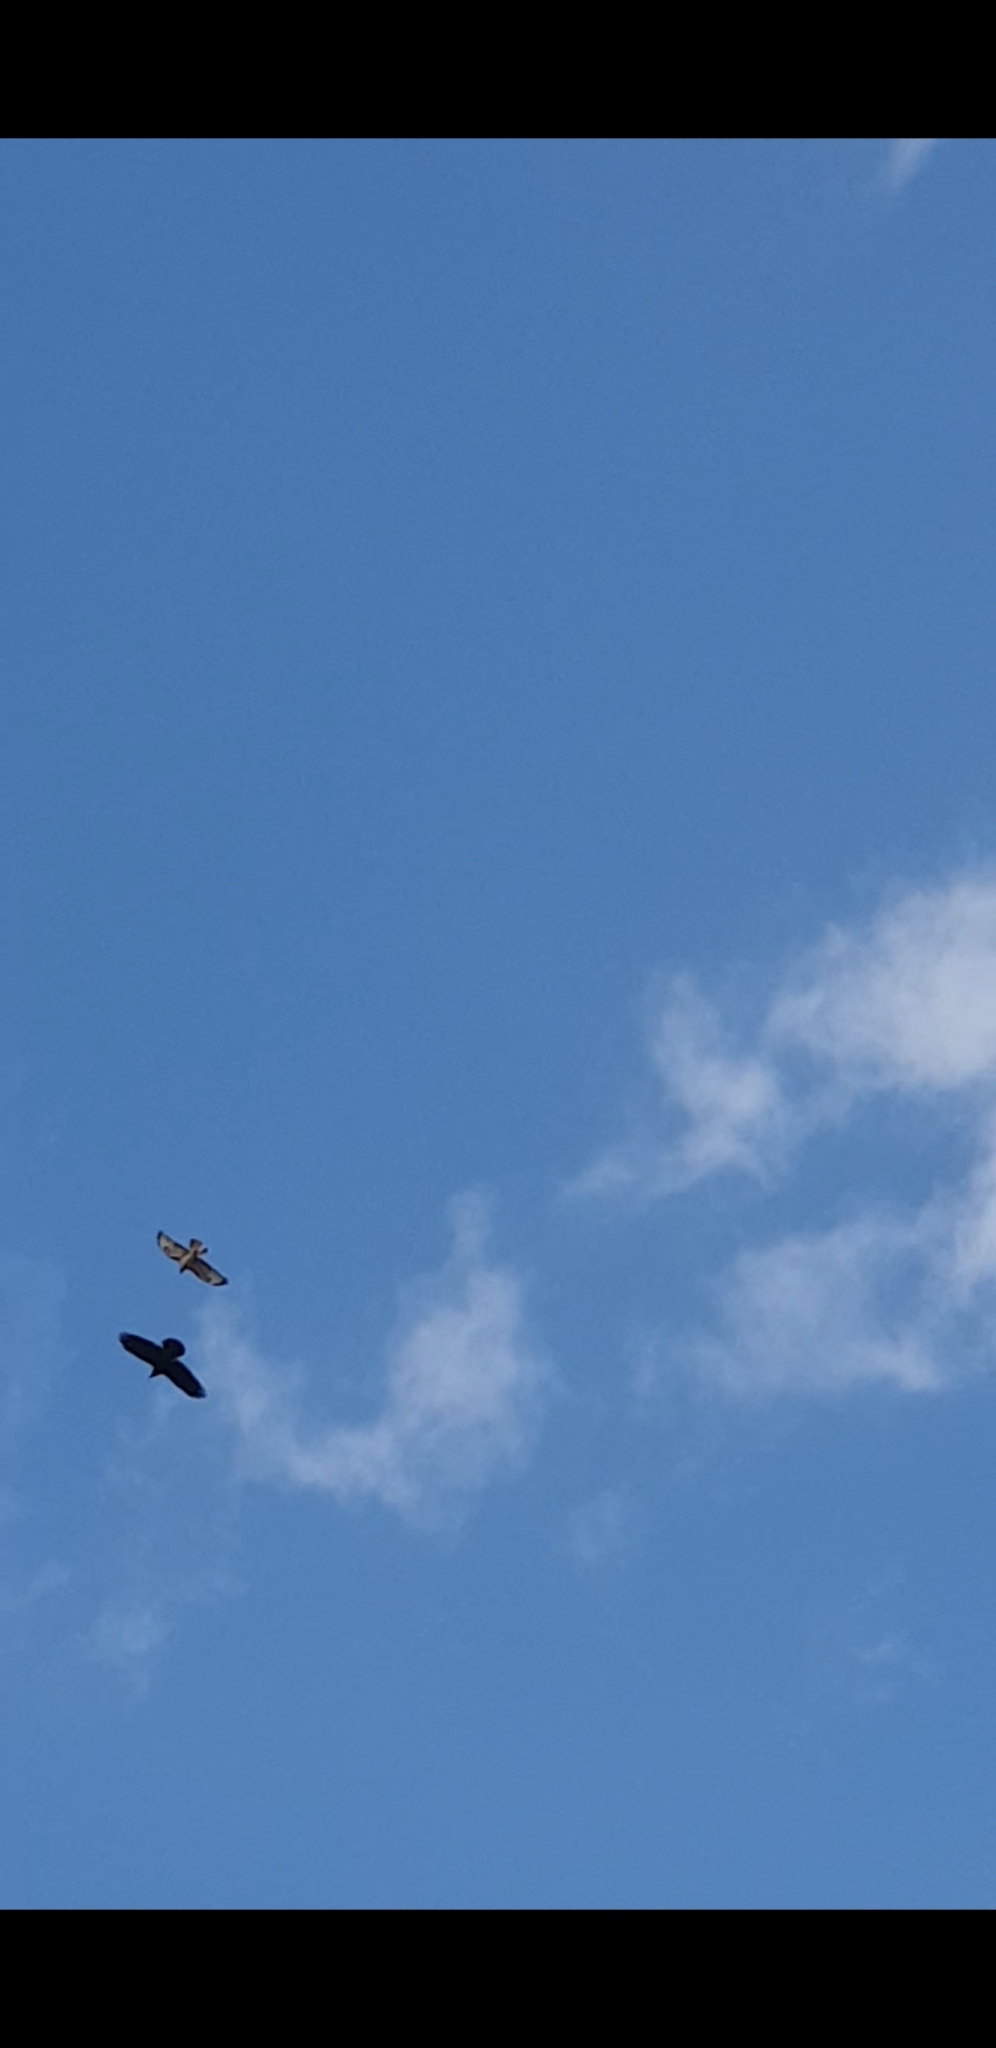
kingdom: Animalia
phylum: Chordata
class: Aves
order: Passeriformes
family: Corvidae
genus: Corvus
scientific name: Corvus corax
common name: Common raven
